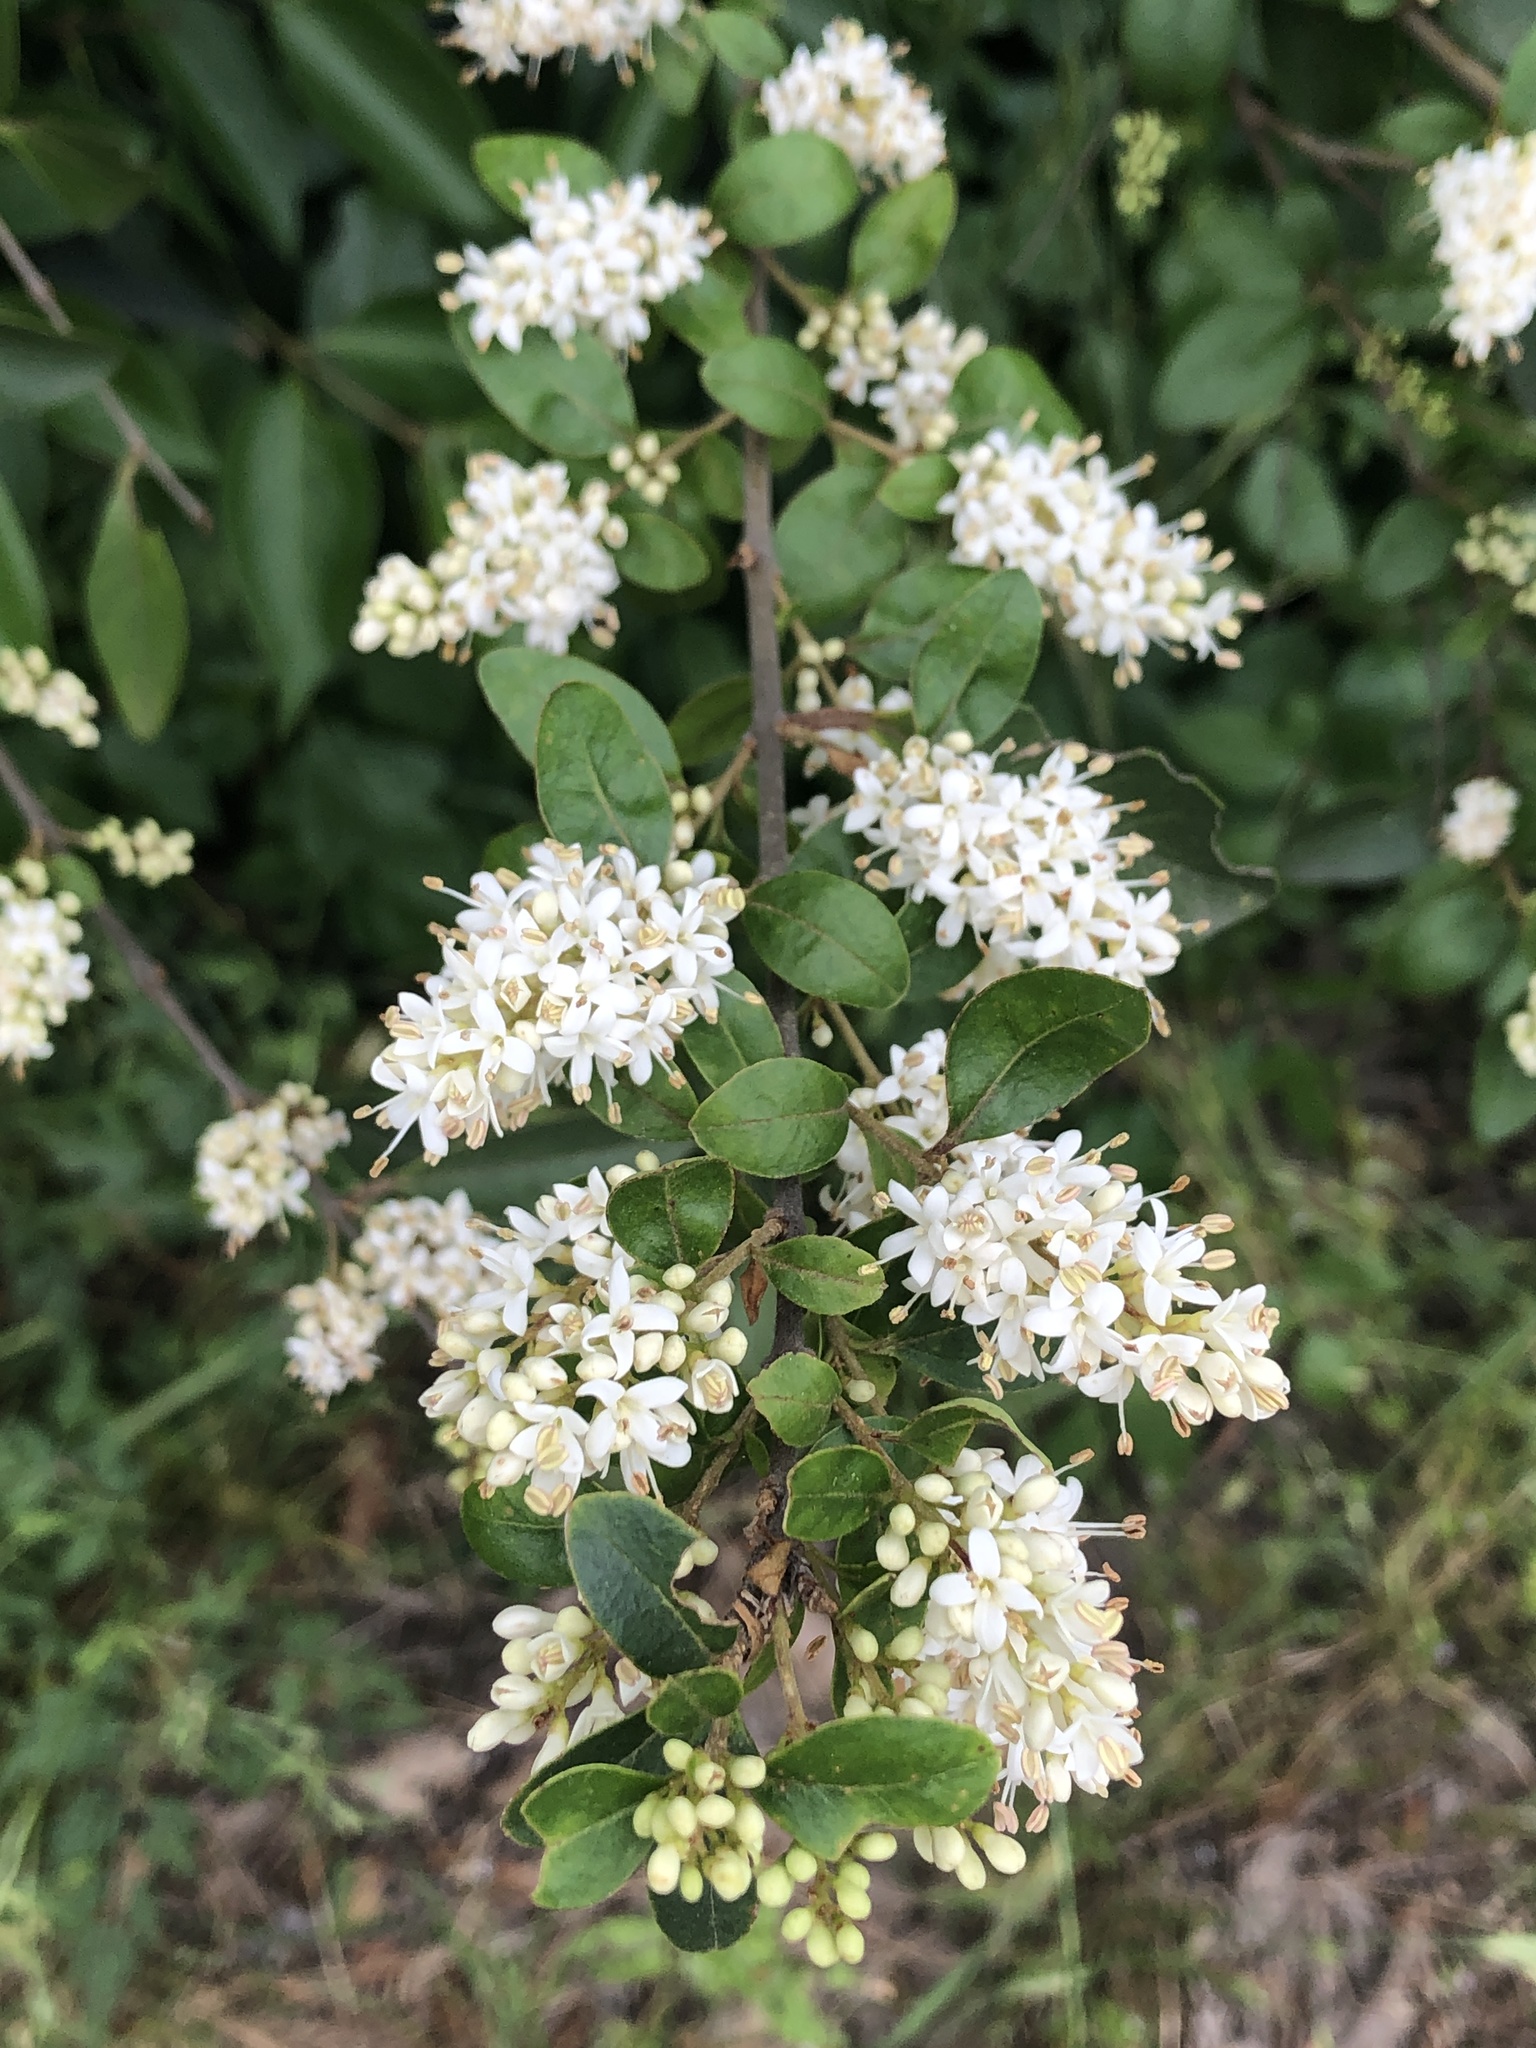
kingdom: Plantae
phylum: Tracheophyta
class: Magnoliopsida
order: Lamiales
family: Oleaceae
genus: Ligustrum
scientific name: Ligustrum sinense
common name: Chinese privet
